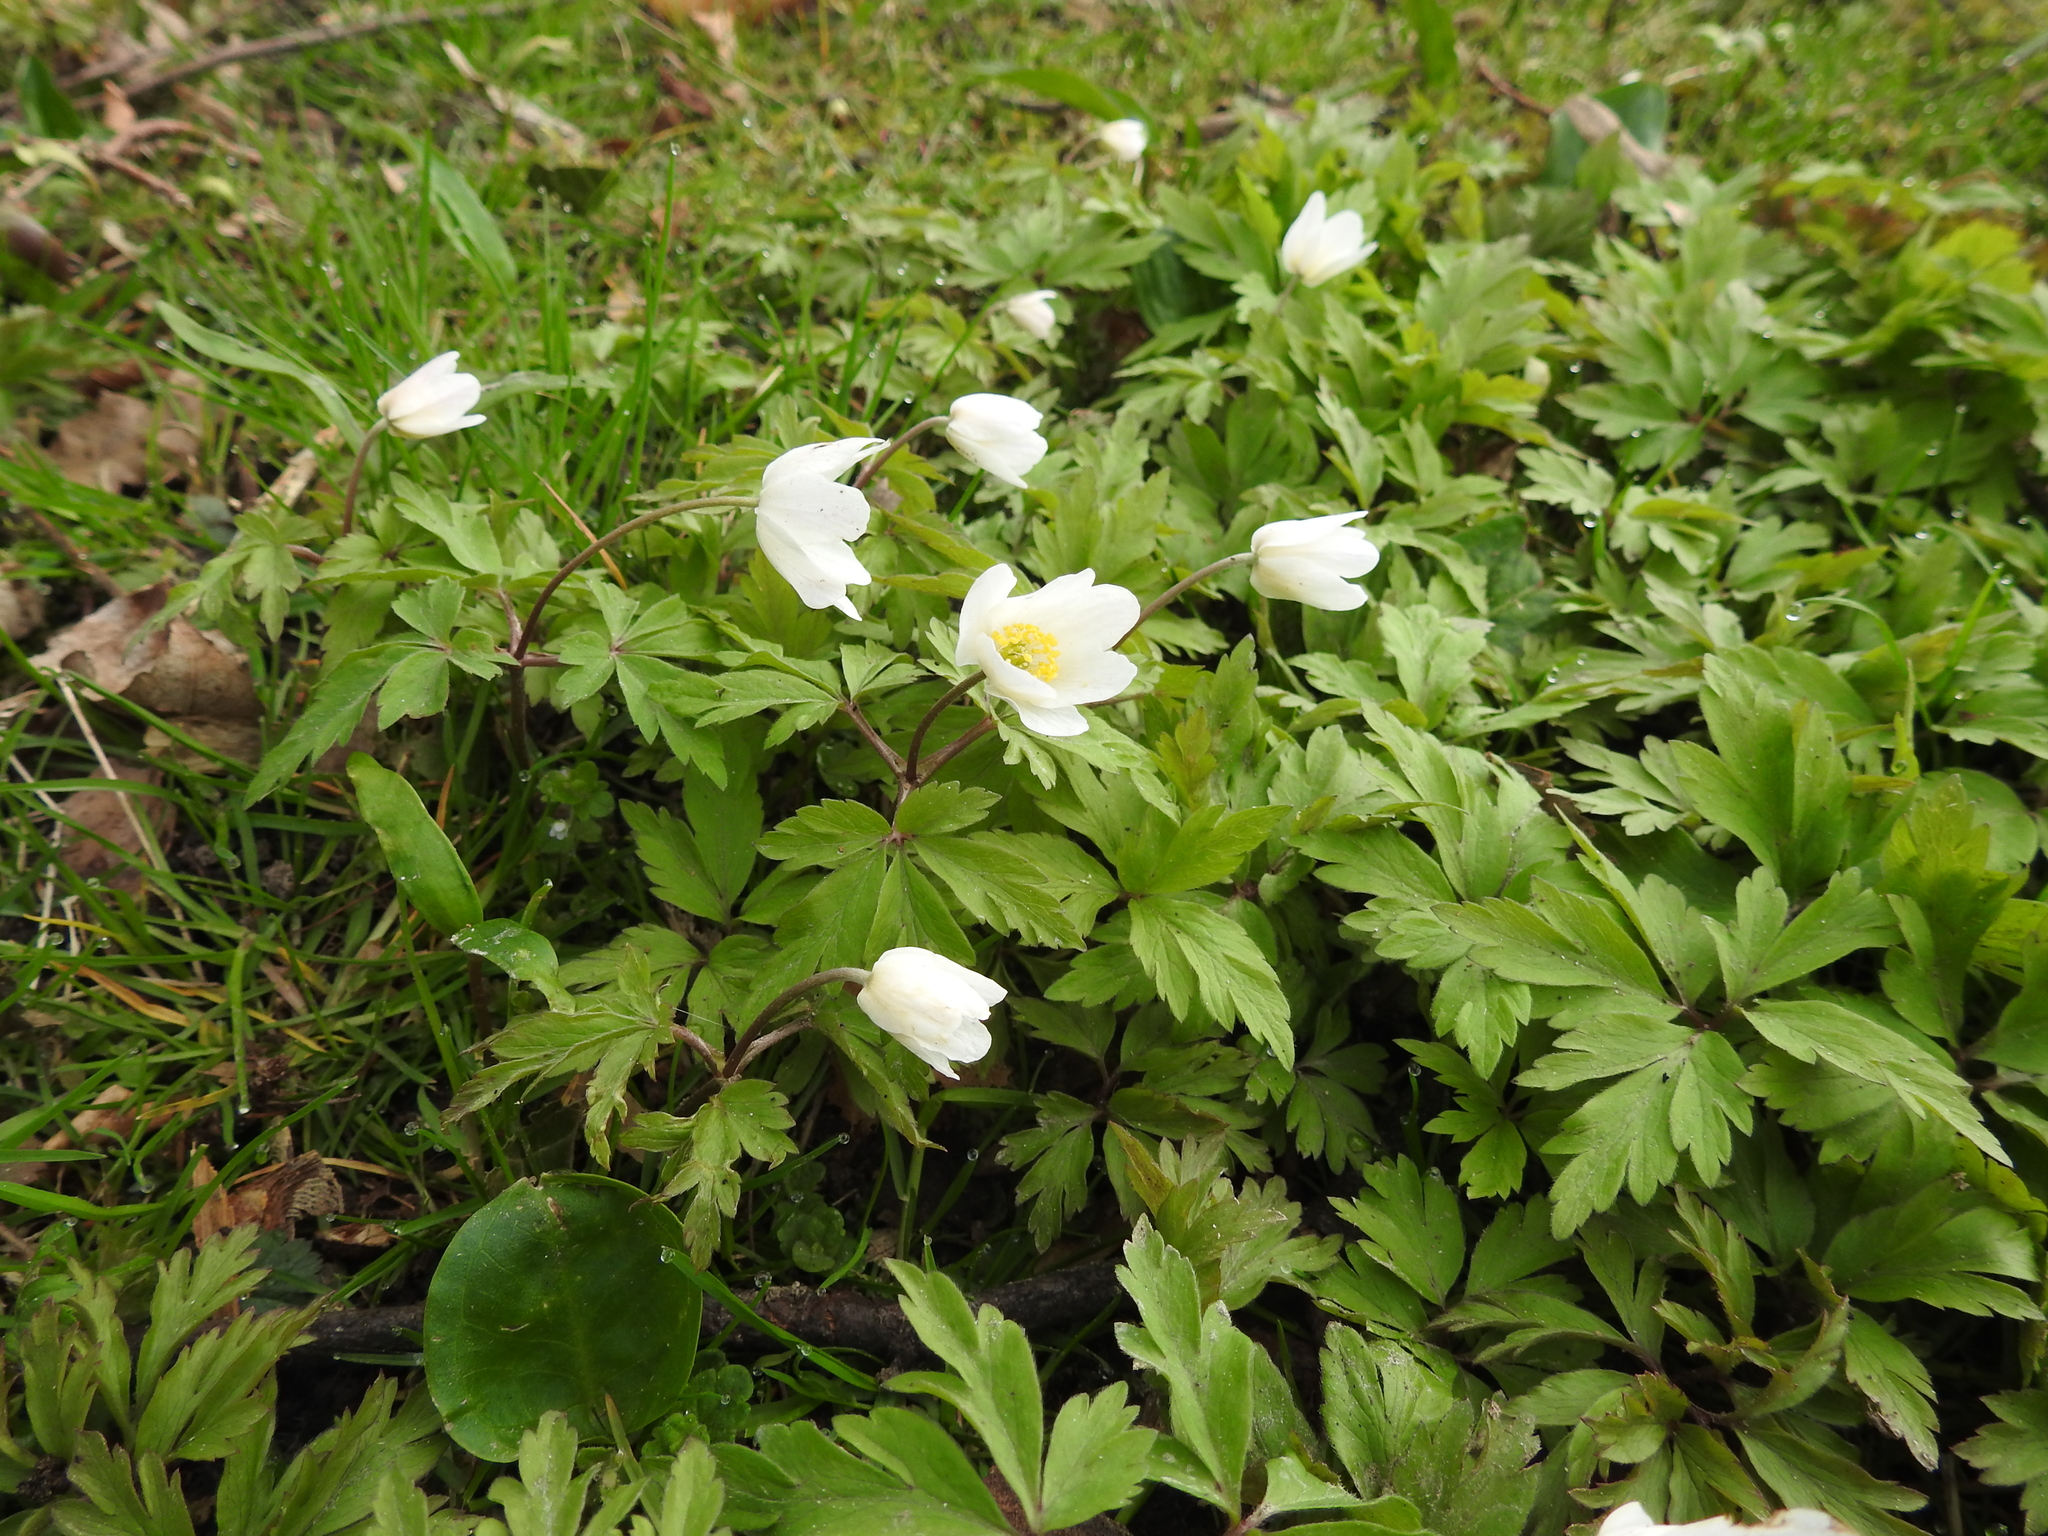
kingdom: Plantae
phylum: Tracheophyta
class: Magnoliopsida
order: Ranunculales
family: Ranunculaceae
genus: Anemone
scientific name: Anemone nemorosa
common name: Wood anemone
